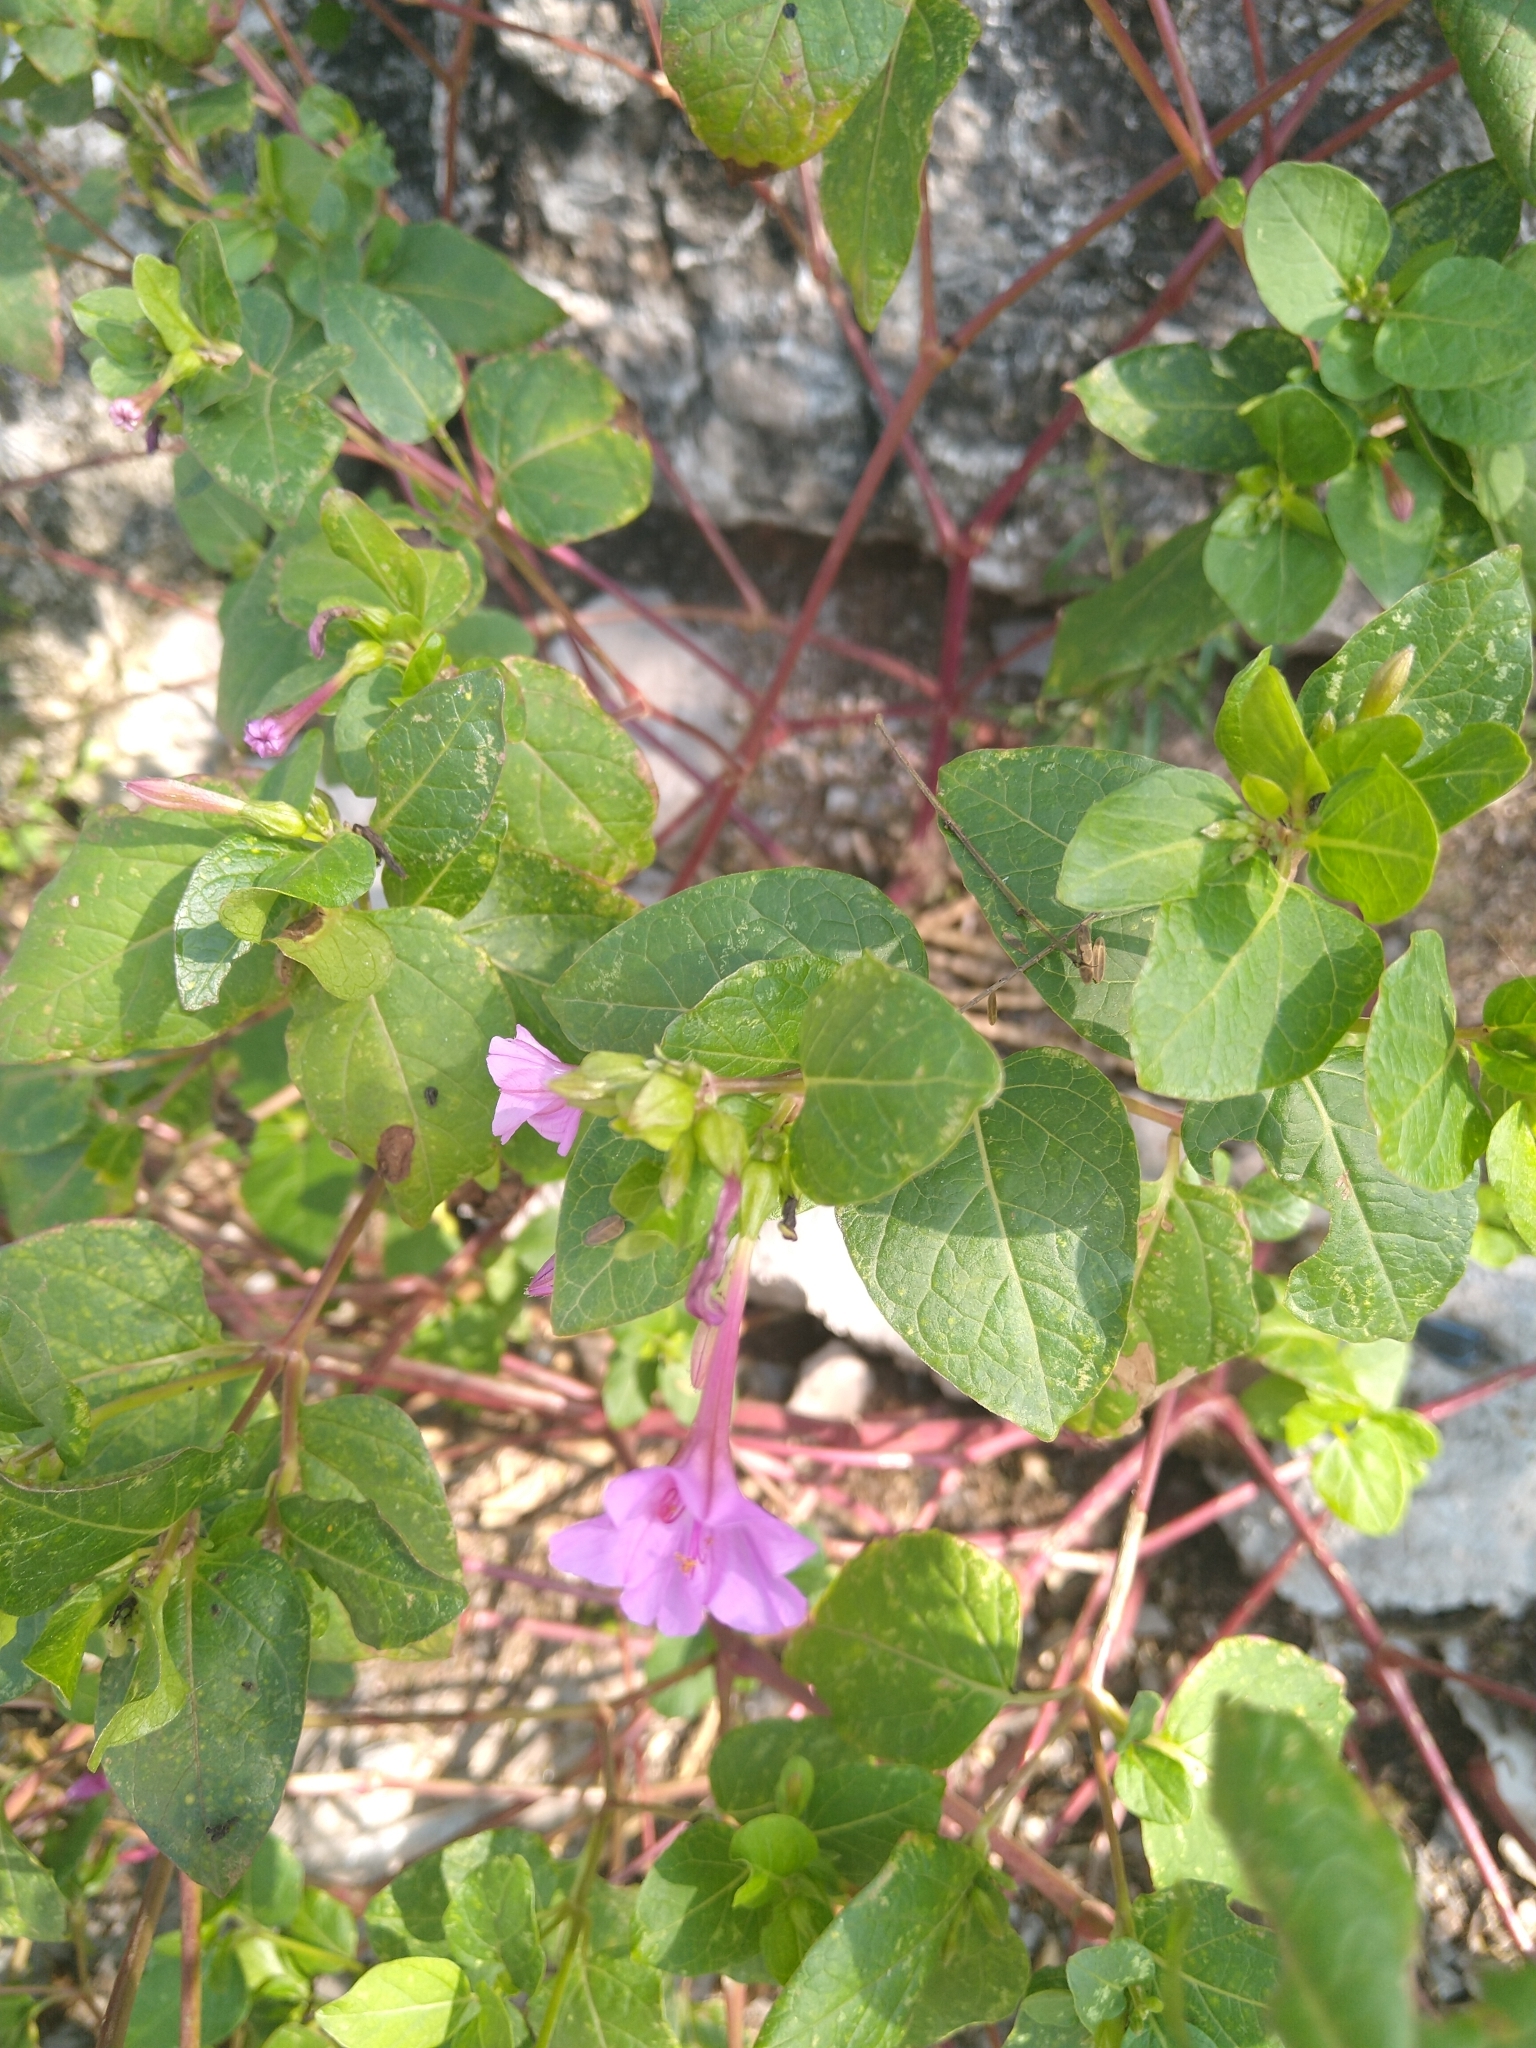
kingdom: Plantae
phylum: Tracheophyta
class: Magnoliopsida
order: Caryophyllales
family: Nyctaginaceae
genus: Mirabilis
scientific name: Mirabilis jalapa
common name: Marvel-of-peru
